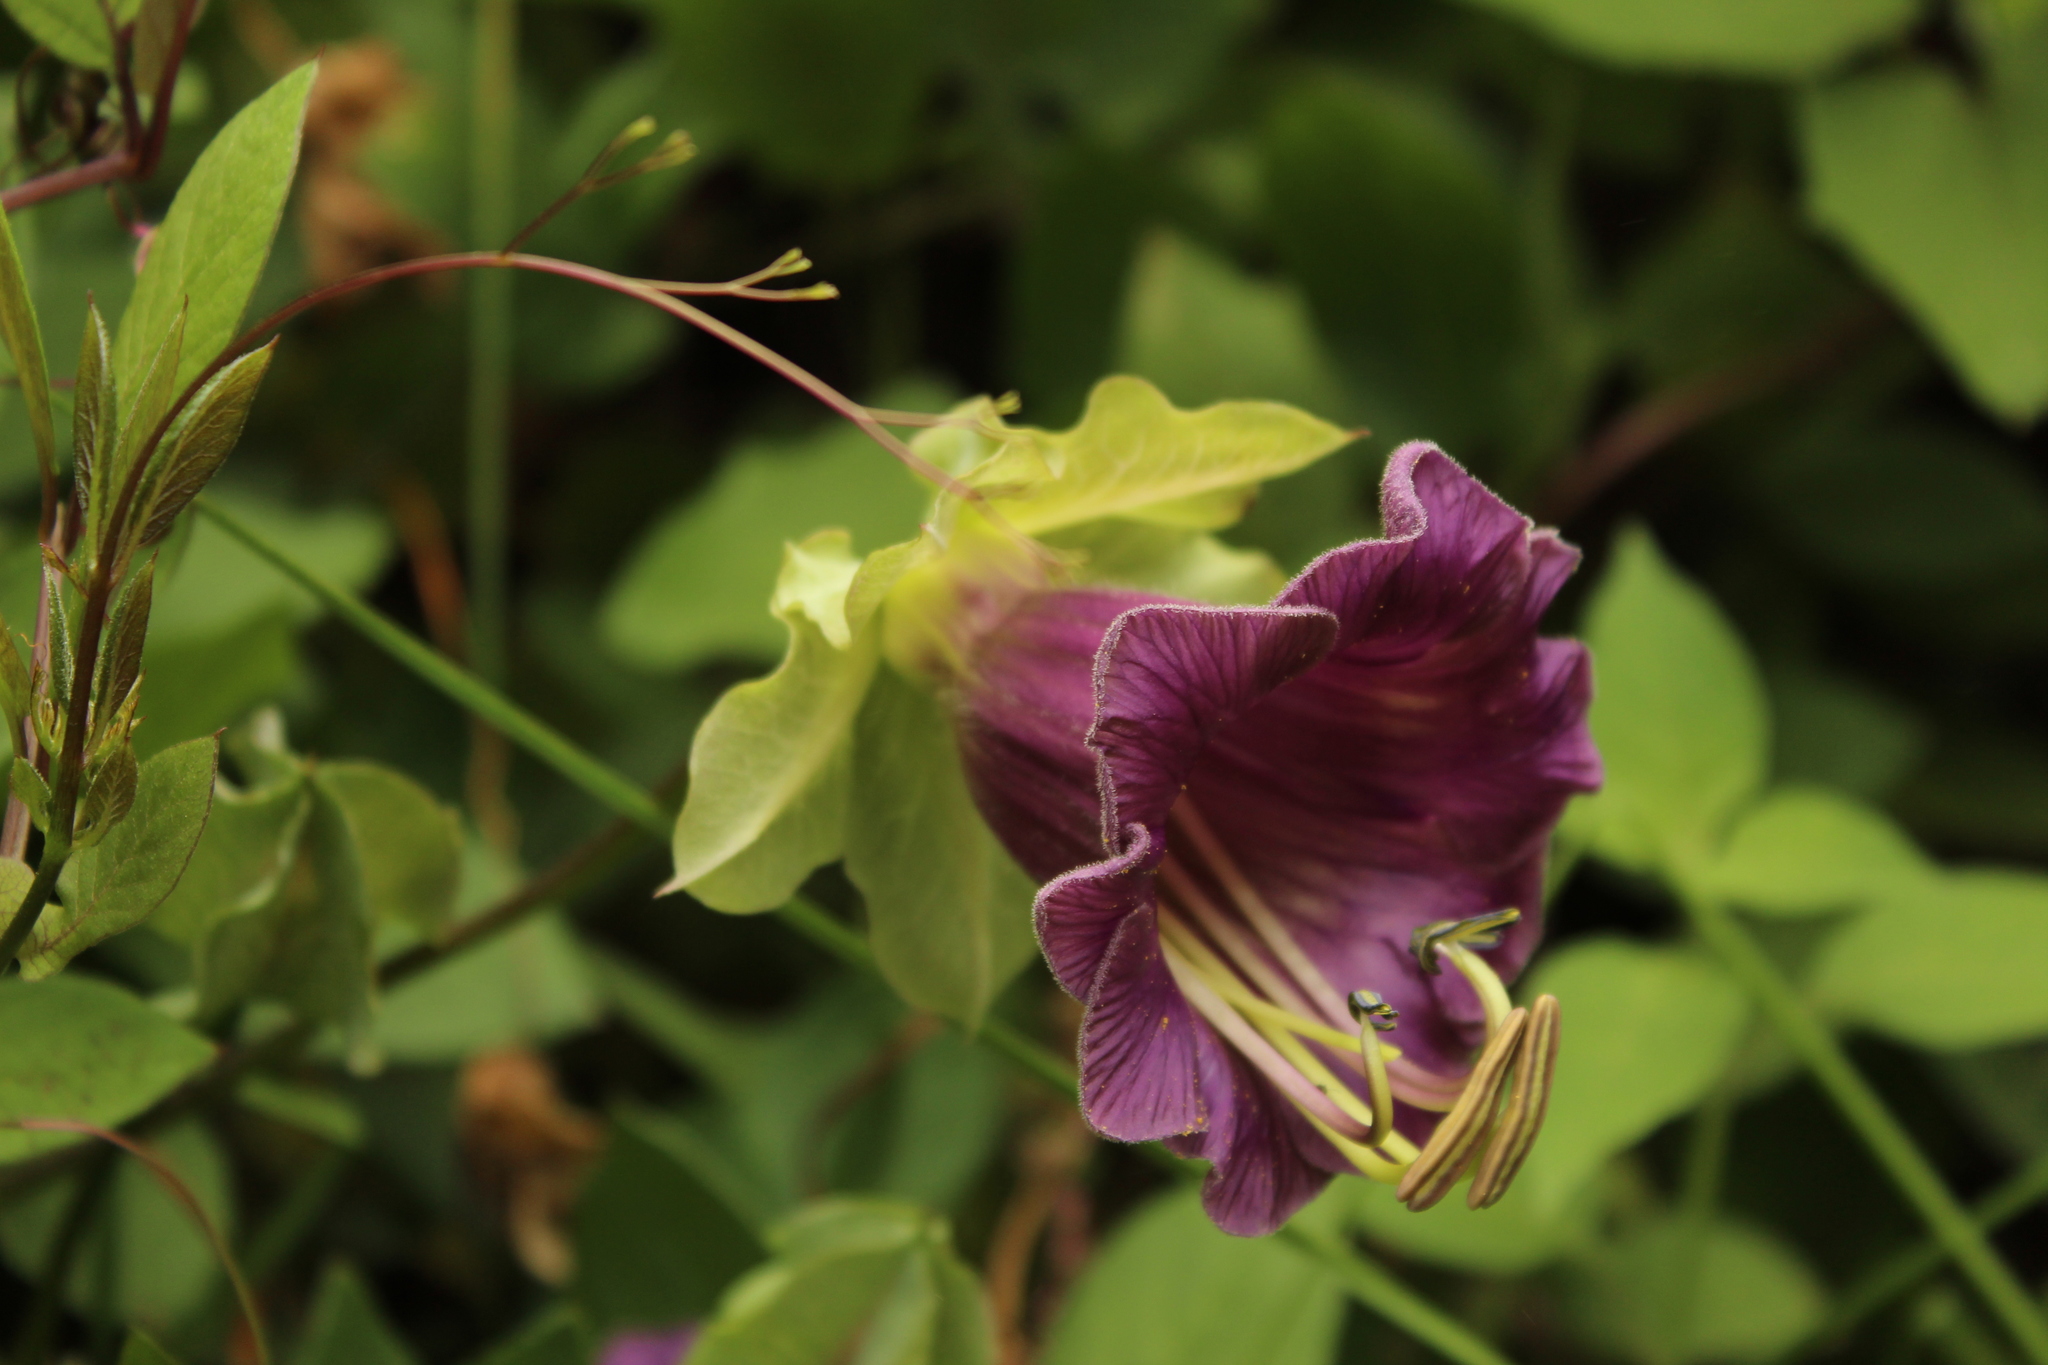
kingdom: Plantae
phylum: Tracheophyta
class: Magnoliopsida
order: Ericales
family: Polemoniaceae
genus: Cobaea
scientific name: Cobaea scandens
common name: Cup-and-saucer-vine
